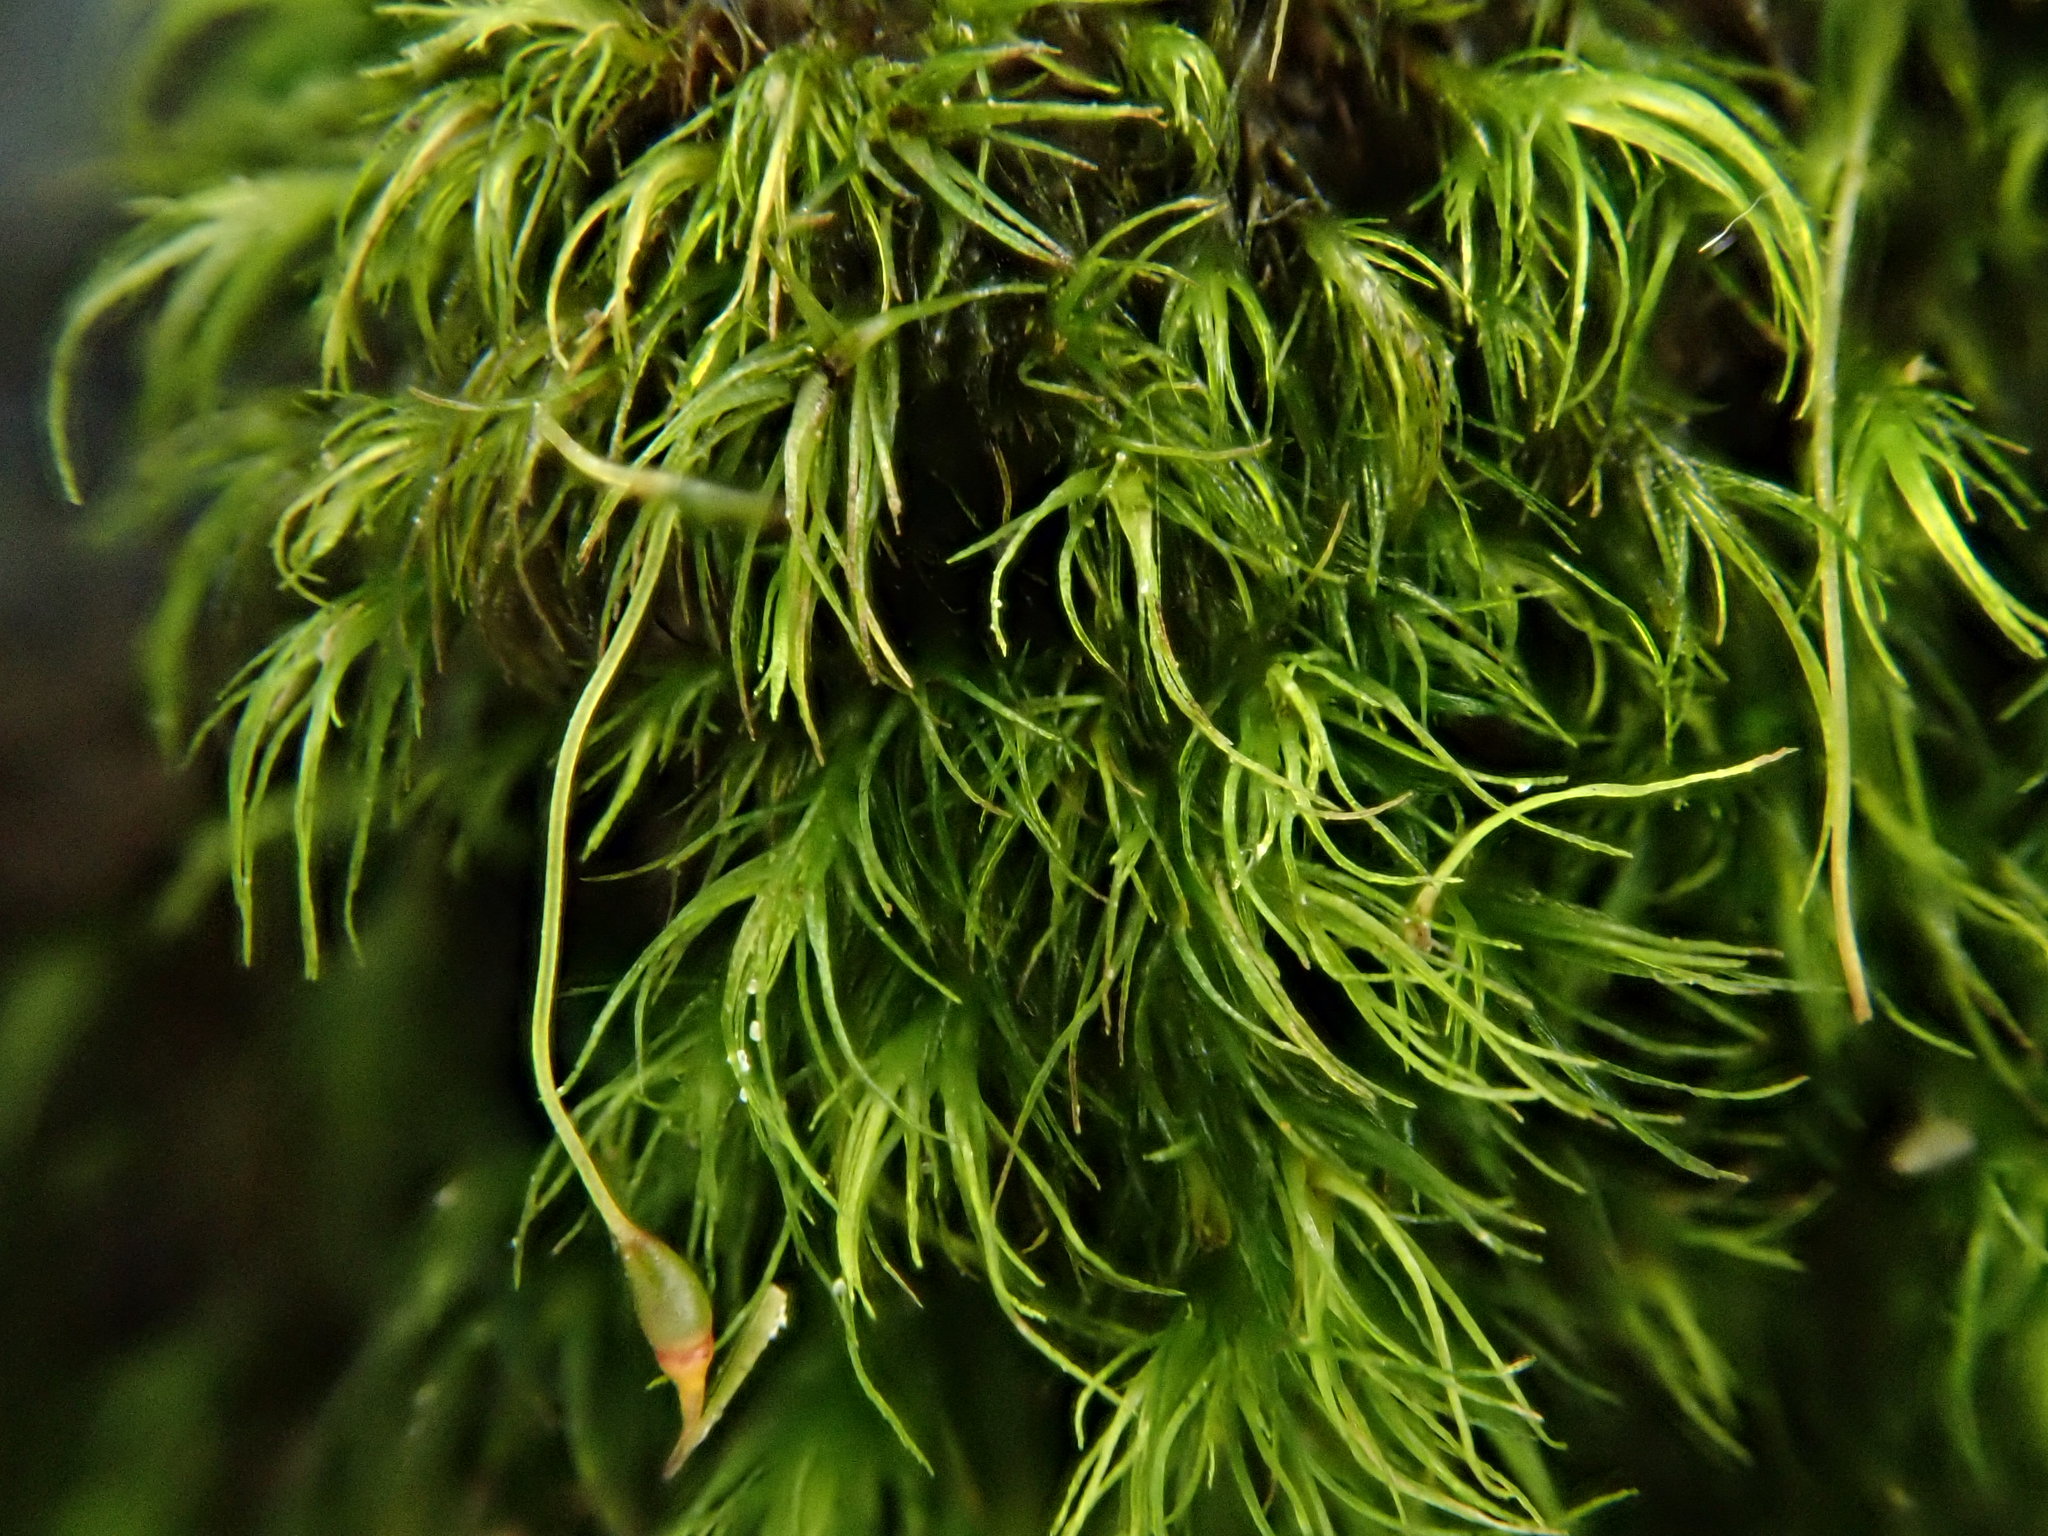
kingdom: Plantae
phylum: Bryophyta
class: Bryopsida
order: Dicranales
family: Dicranellaceae
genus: Dicranella
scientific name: Dicranella heteromalla
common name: Silky forklet moss
